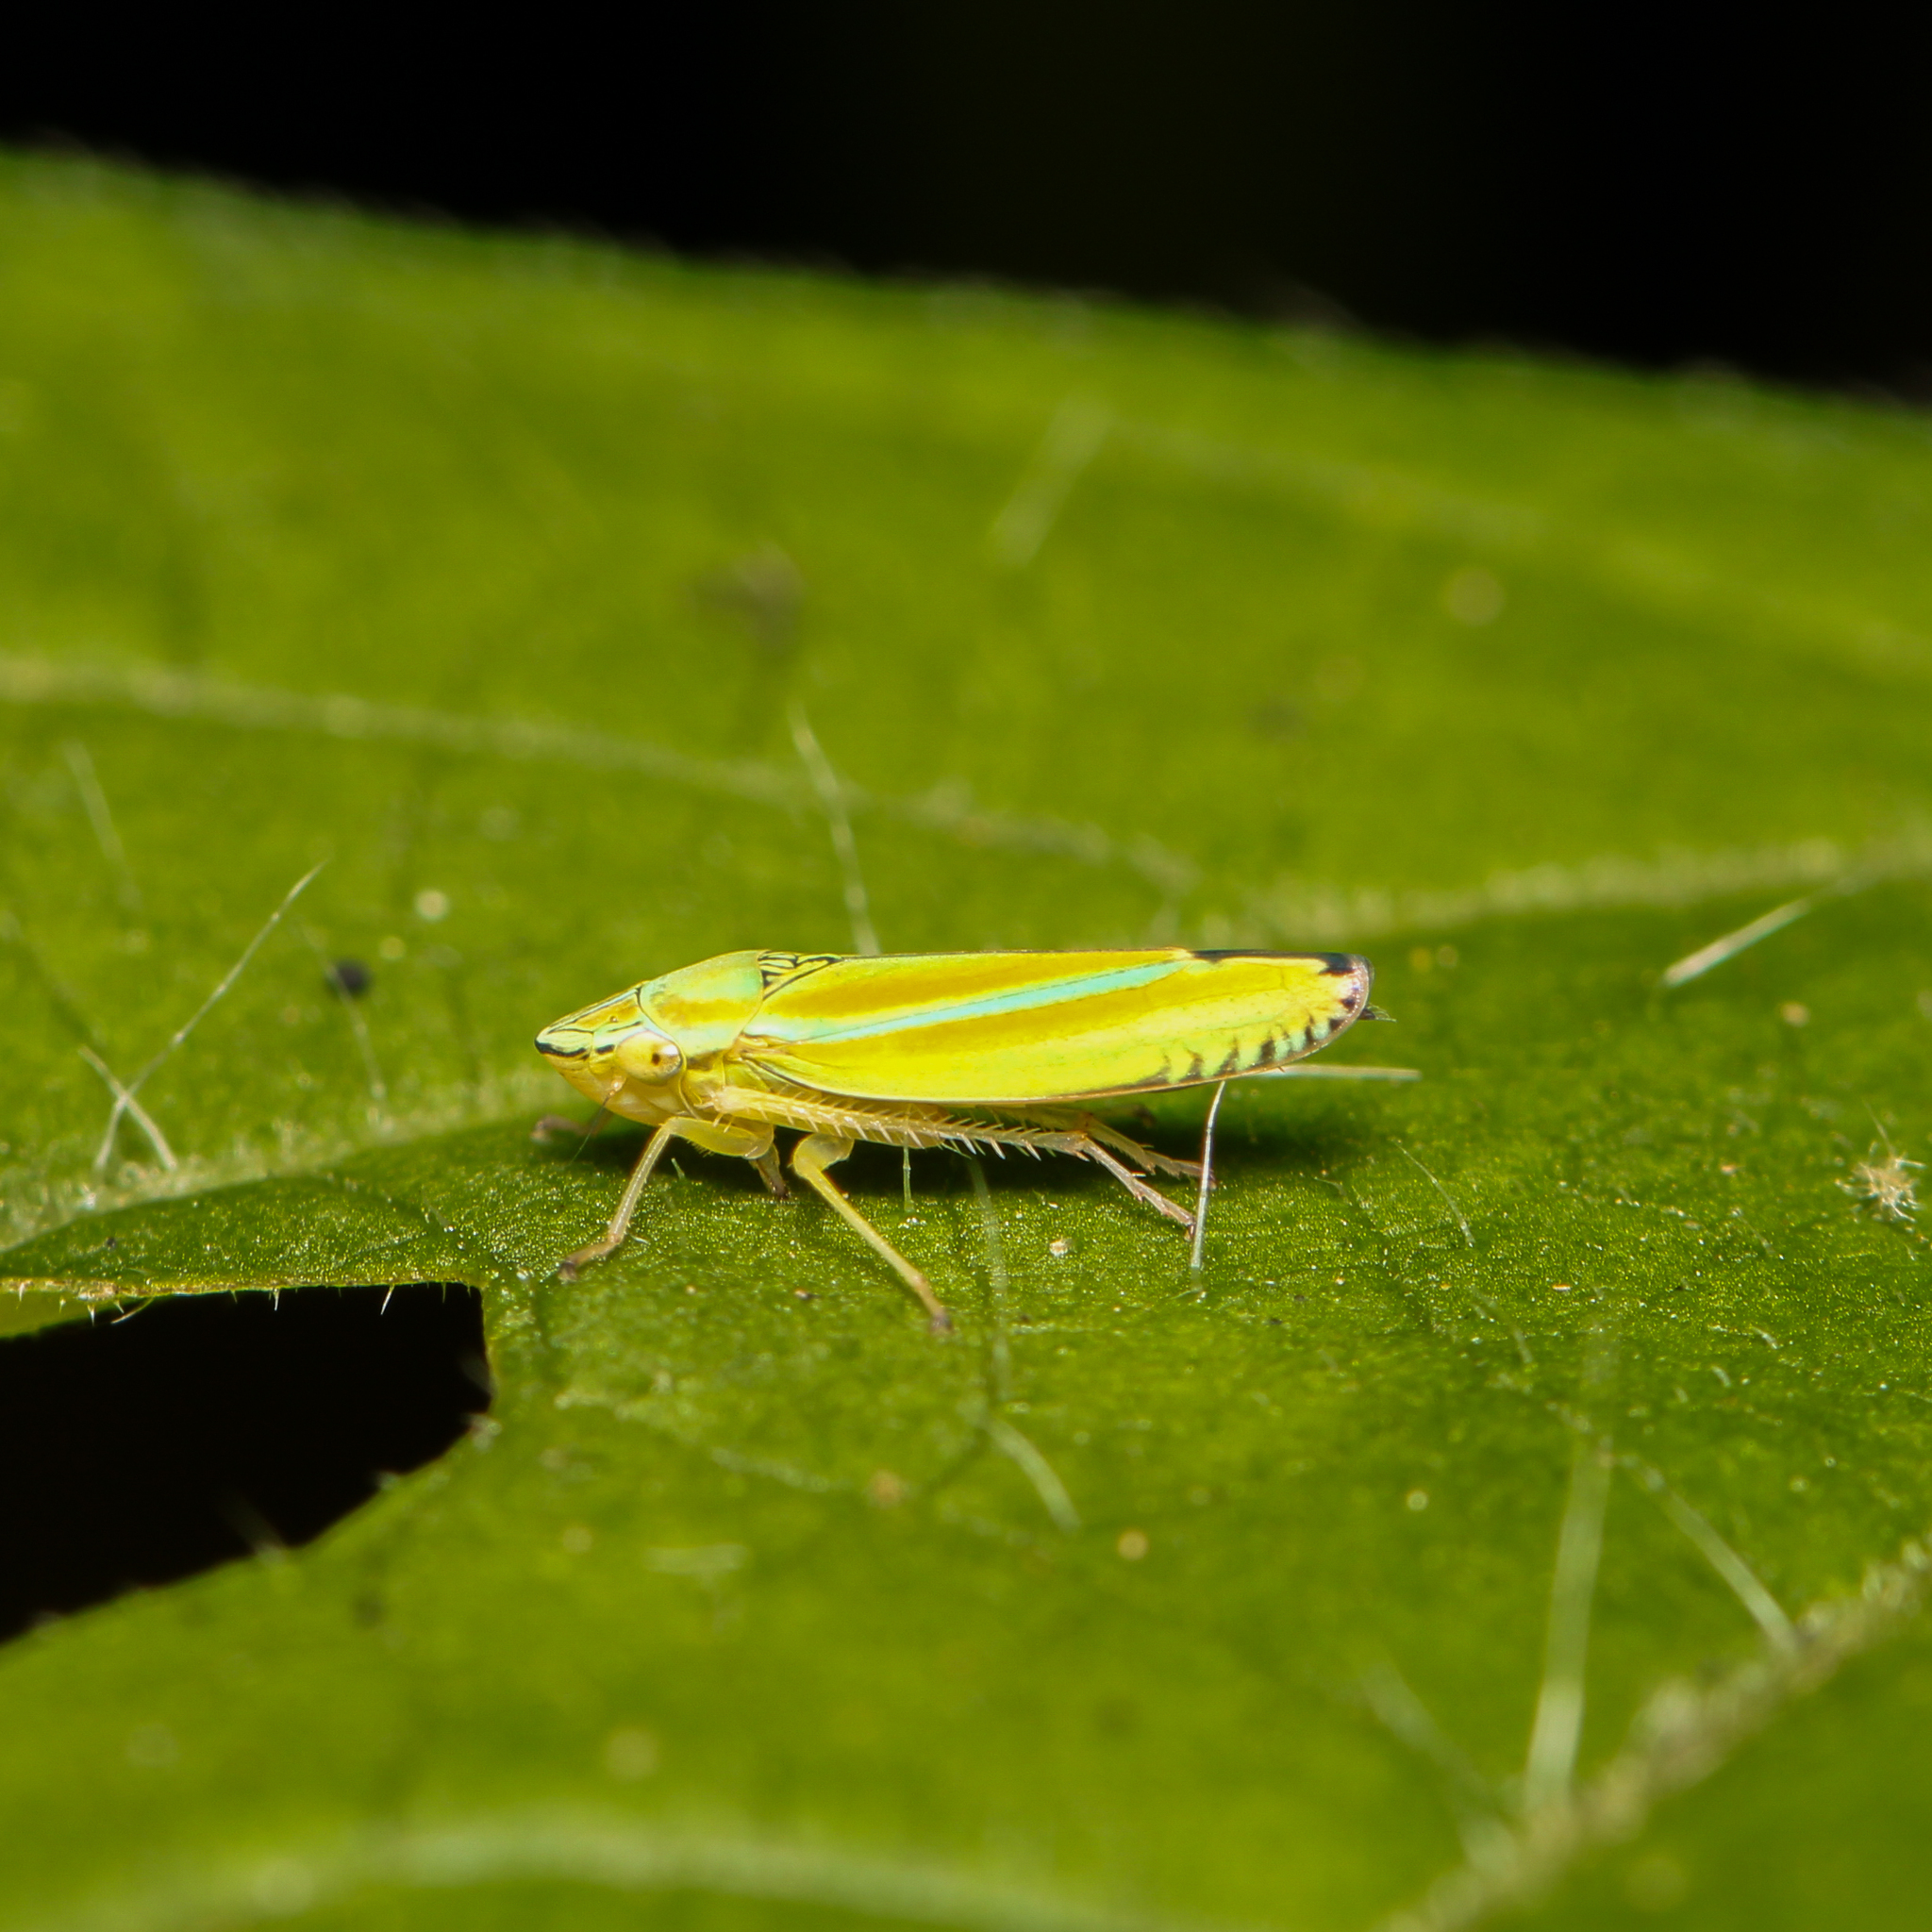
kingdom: Animalia
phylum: Arthropoda
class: Insecta
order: Hemiptera
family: Cicadellidae
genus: Graphocephala
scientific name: Graphocephala versuta
